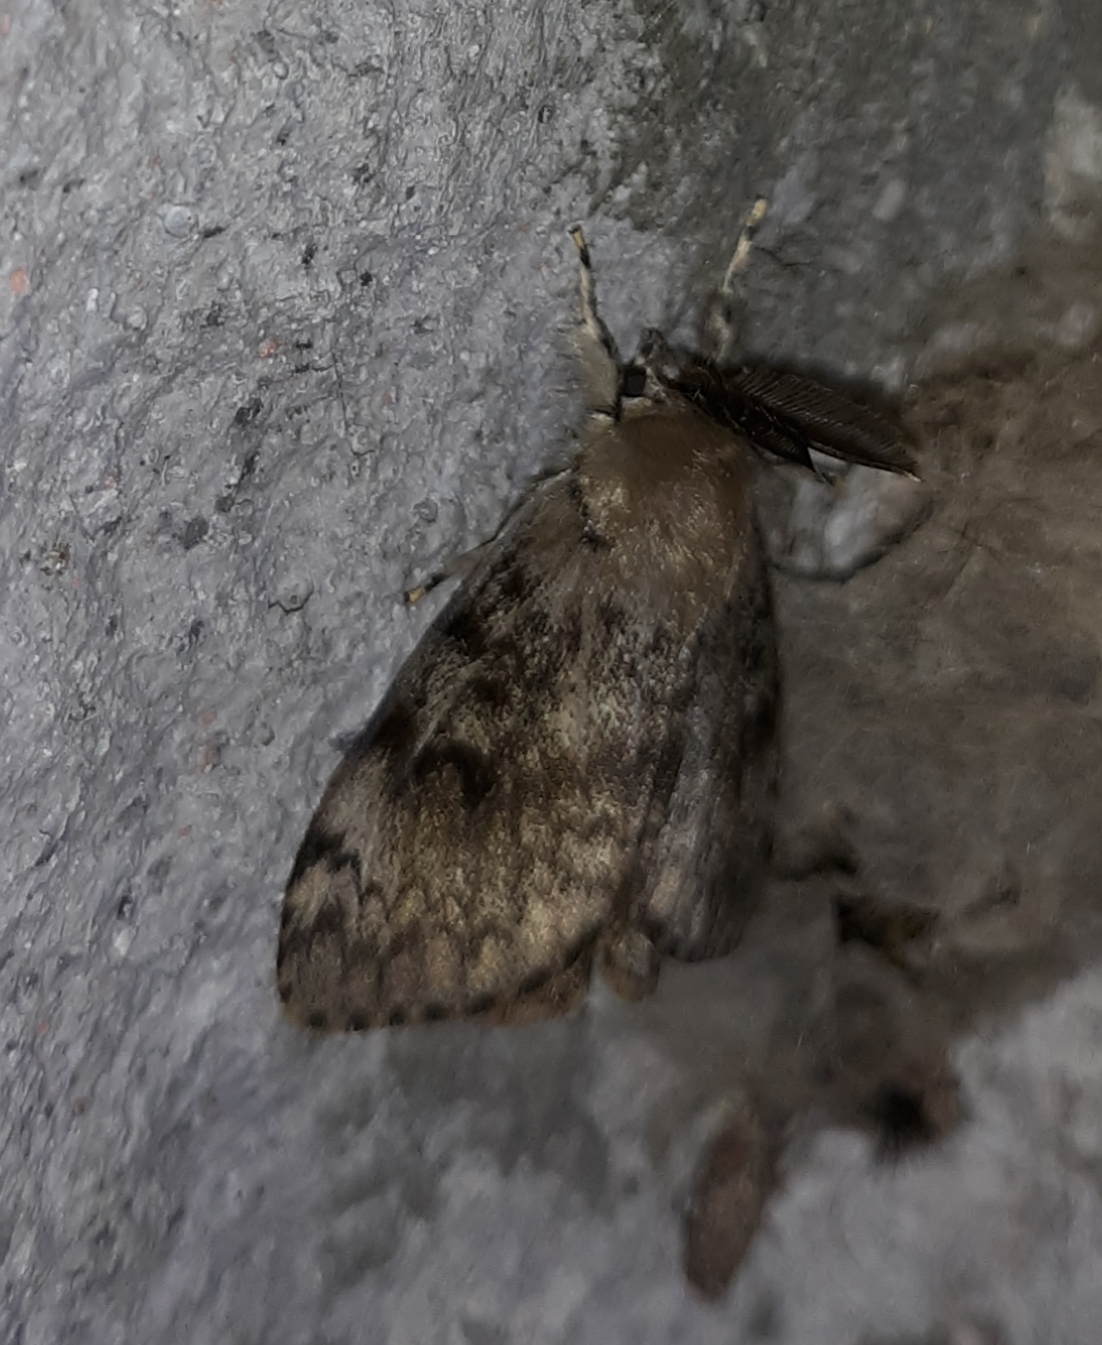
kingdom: Animalia
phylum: Arthropoda
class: Insecta
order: Lepidoptera
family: Erebidae
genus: Lymantria
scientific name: Lymantria dispar
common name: Gypsy moth
